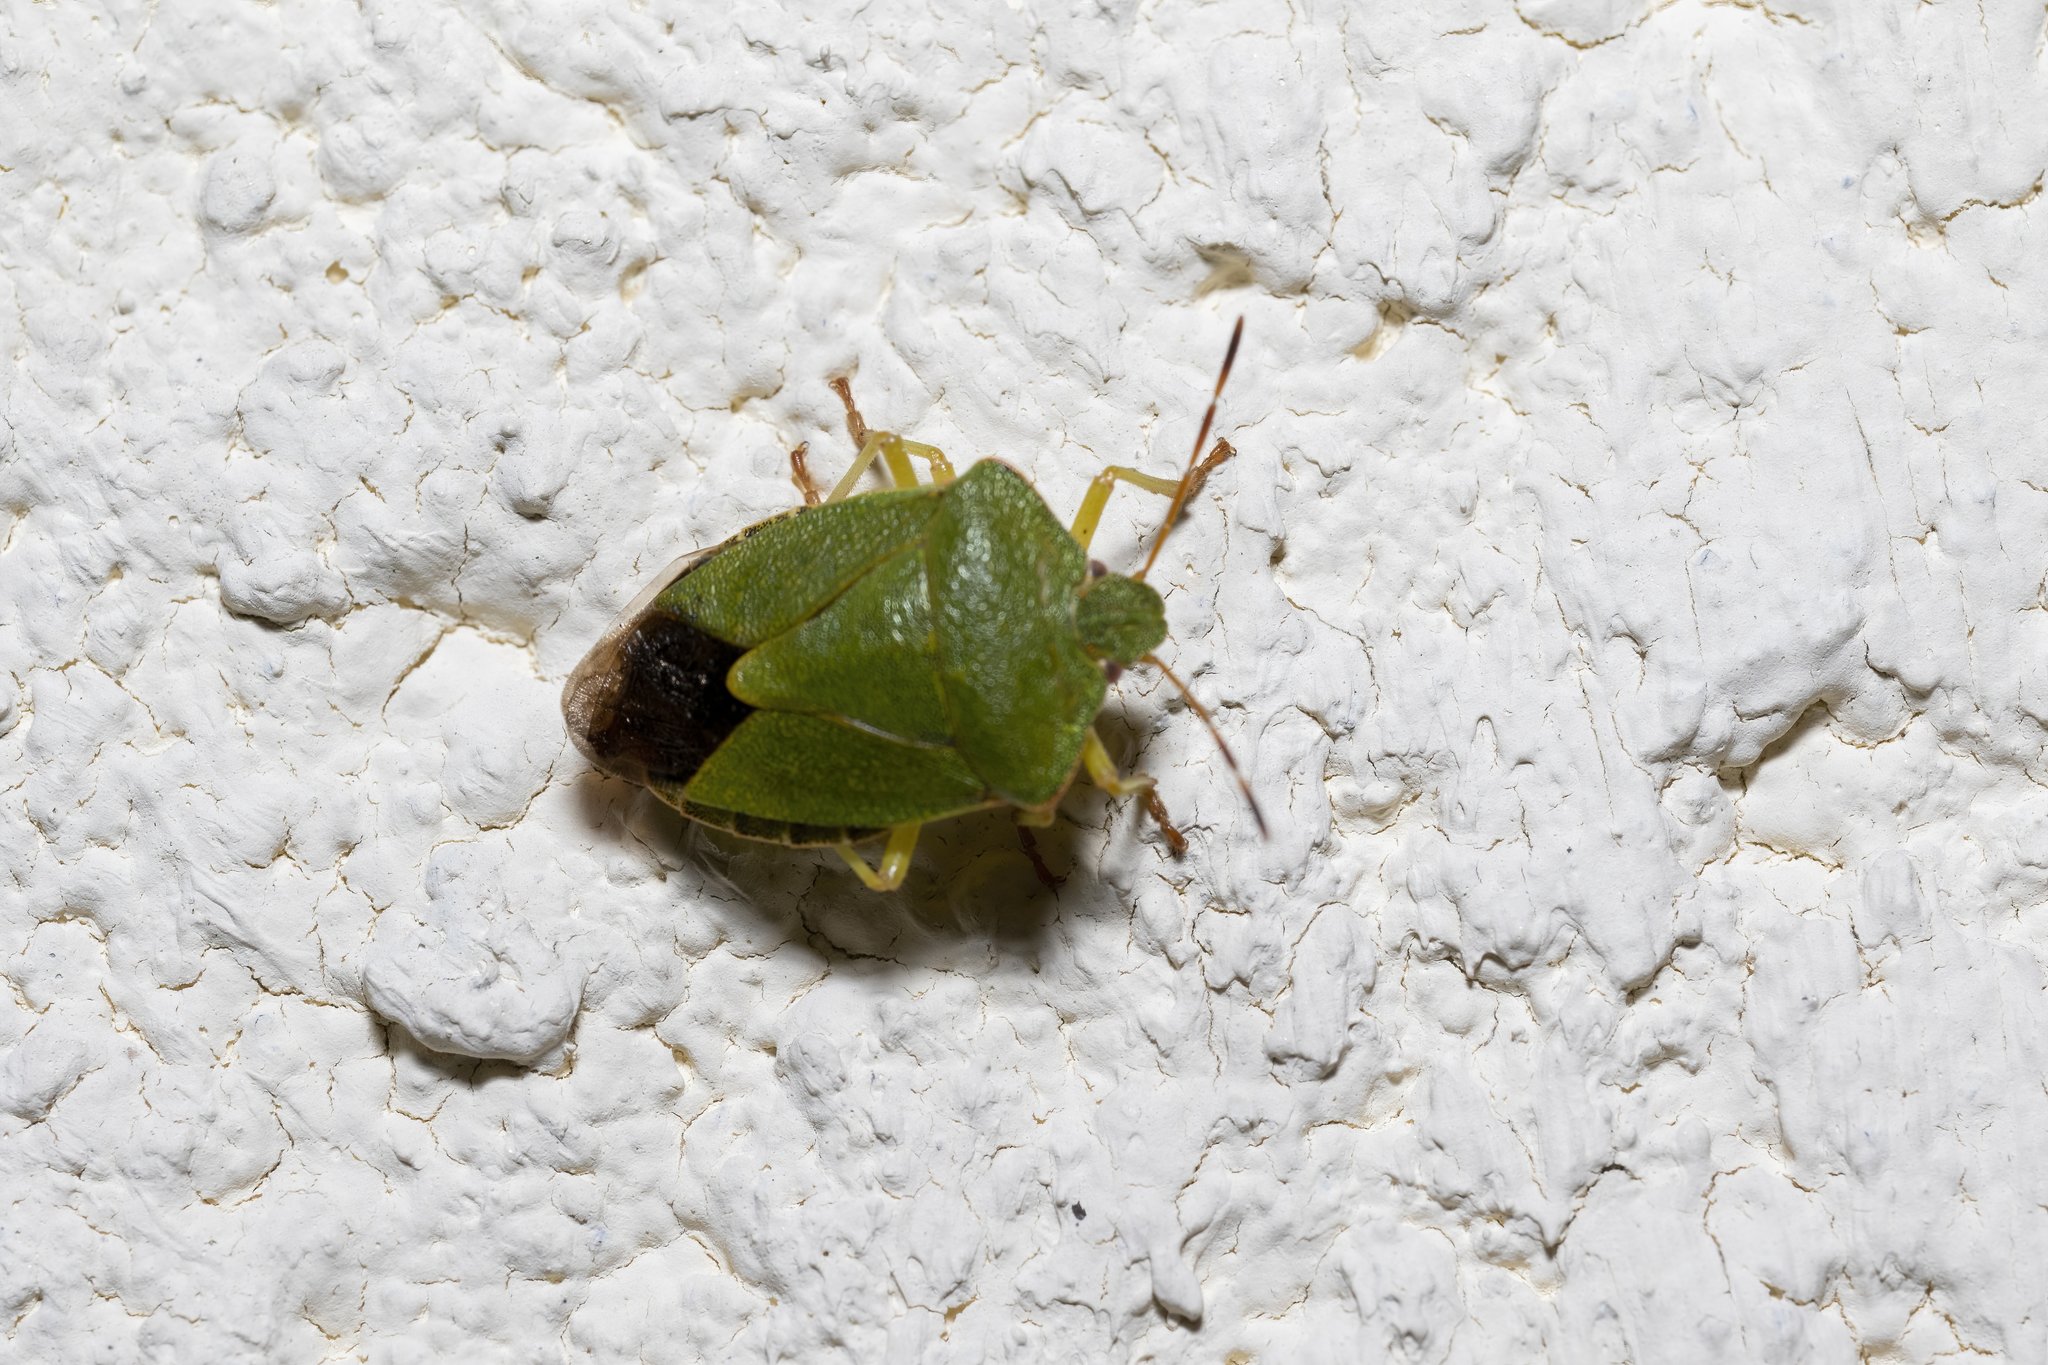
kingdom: Animalia
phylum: Arthropoda
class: Insecta
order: Hemiptera
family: Pentatomidae
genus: Palomena
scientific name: Palomena prasina
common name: Green shieldbug
